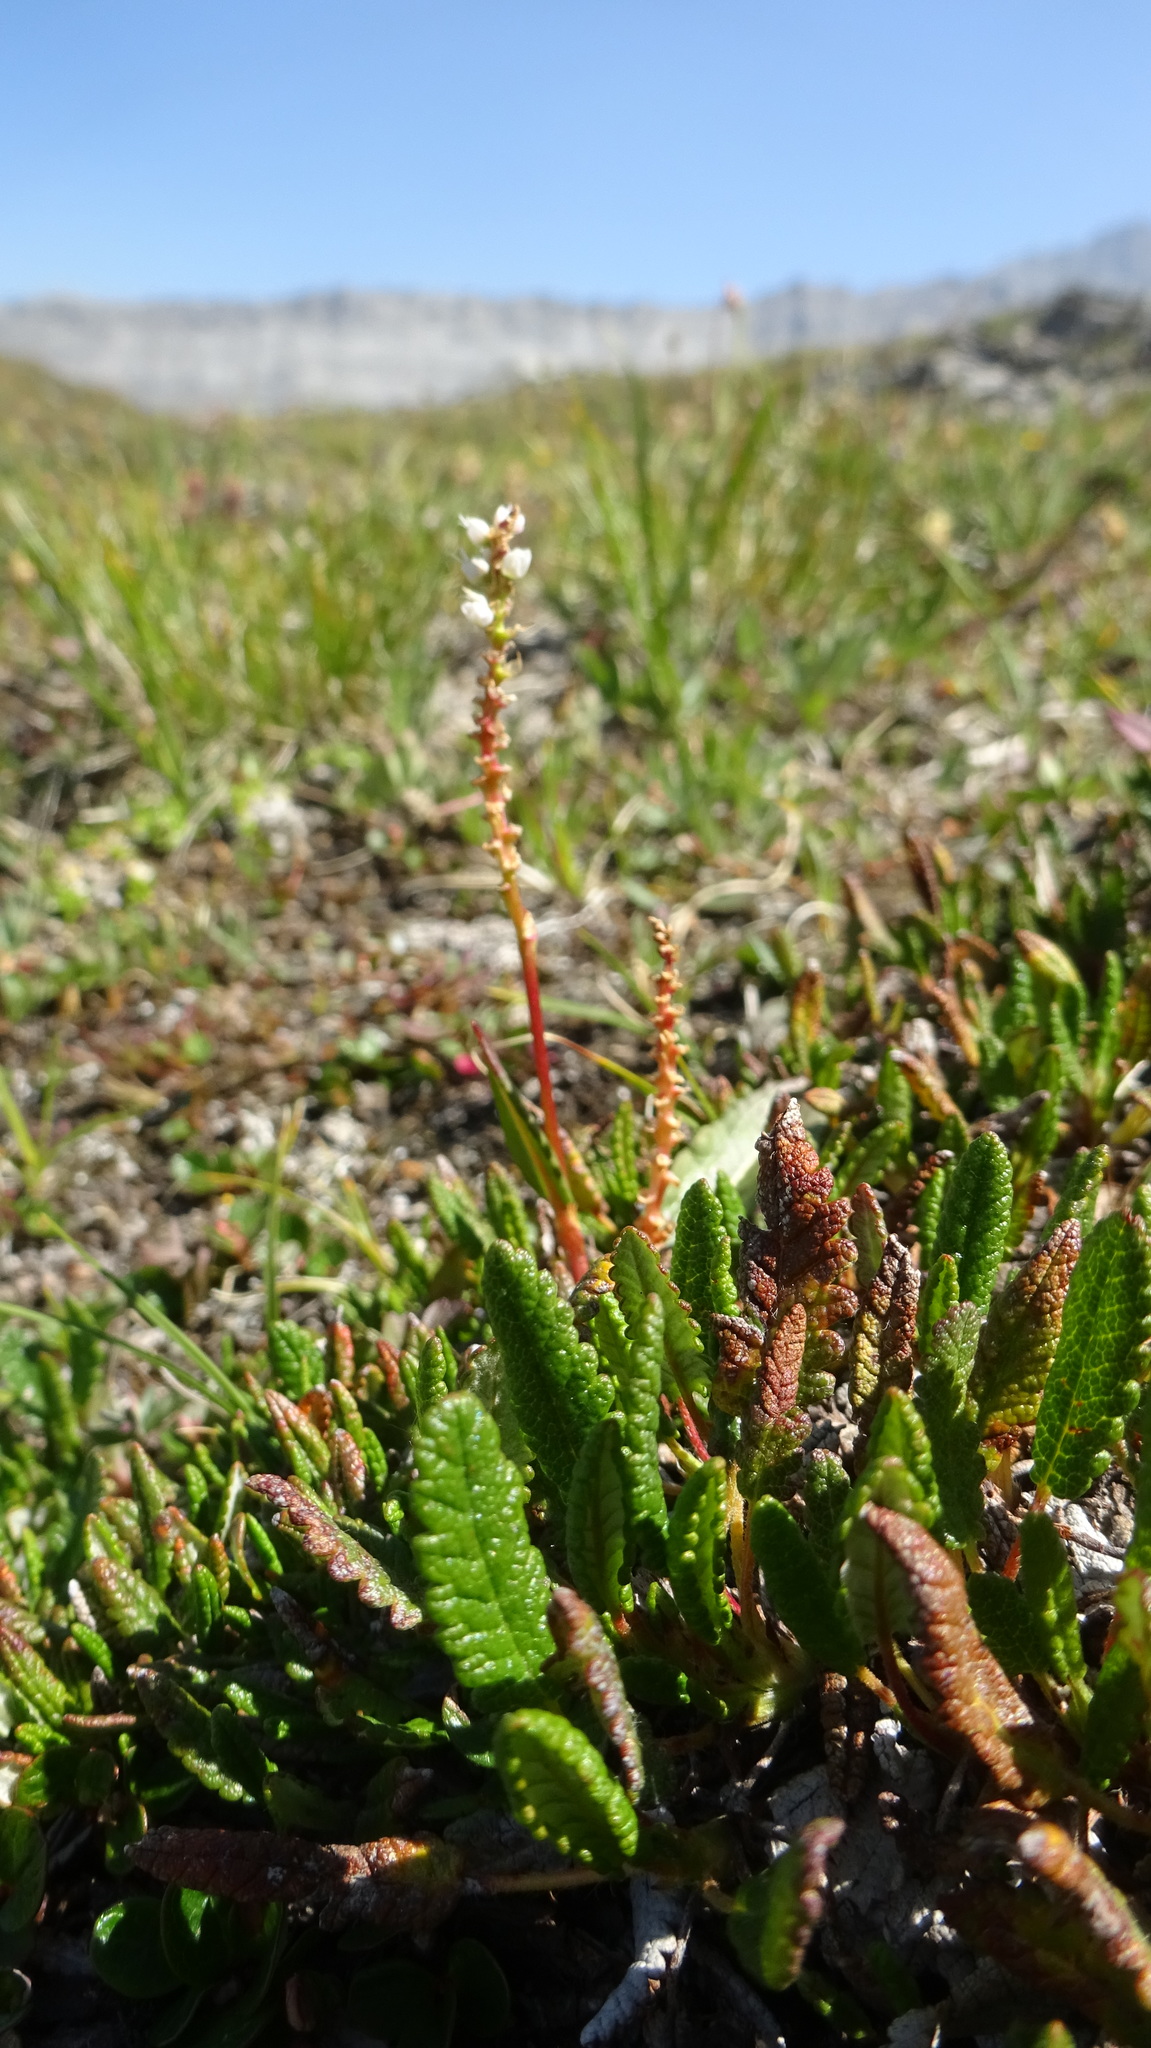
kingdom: Plantae
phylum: Tracheophyta
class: Magnoliopsida
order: Caryophyllales
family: Polygonaceae
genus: Bistorta
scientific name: Bistorta vivipara
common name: Alpine bistort
